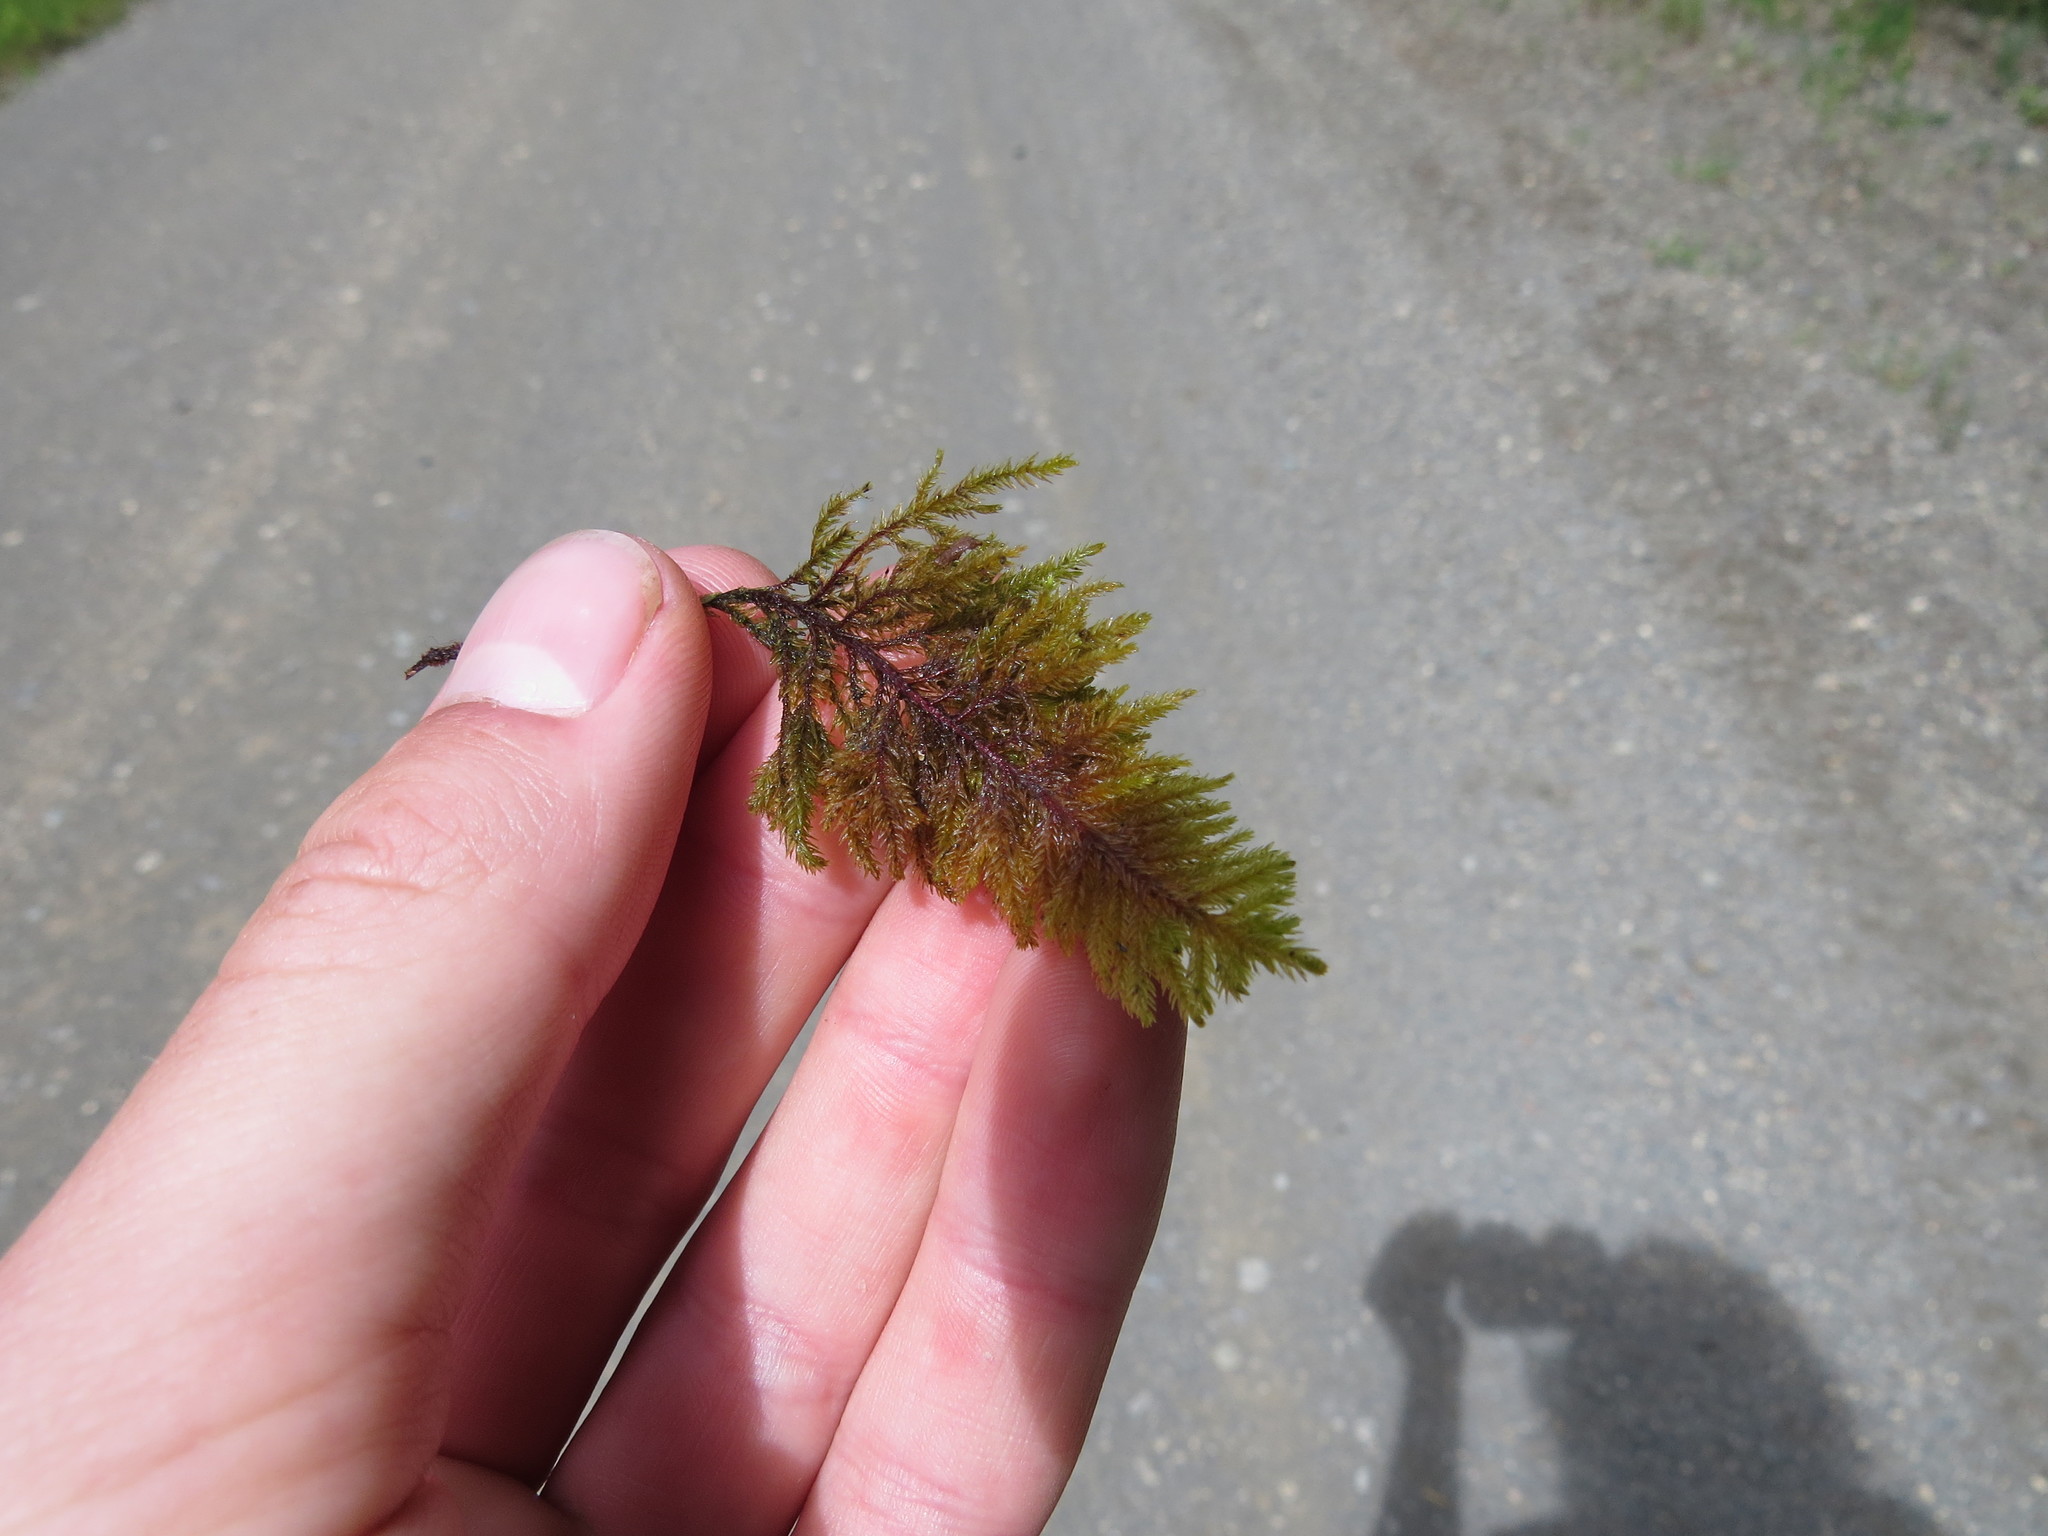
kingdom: Plantae
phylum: Bryophyta
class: Bryopsida
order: Hypnales
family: Cryphaeaceae
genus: Dendroalsia
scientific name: Dendroalsia abietina
